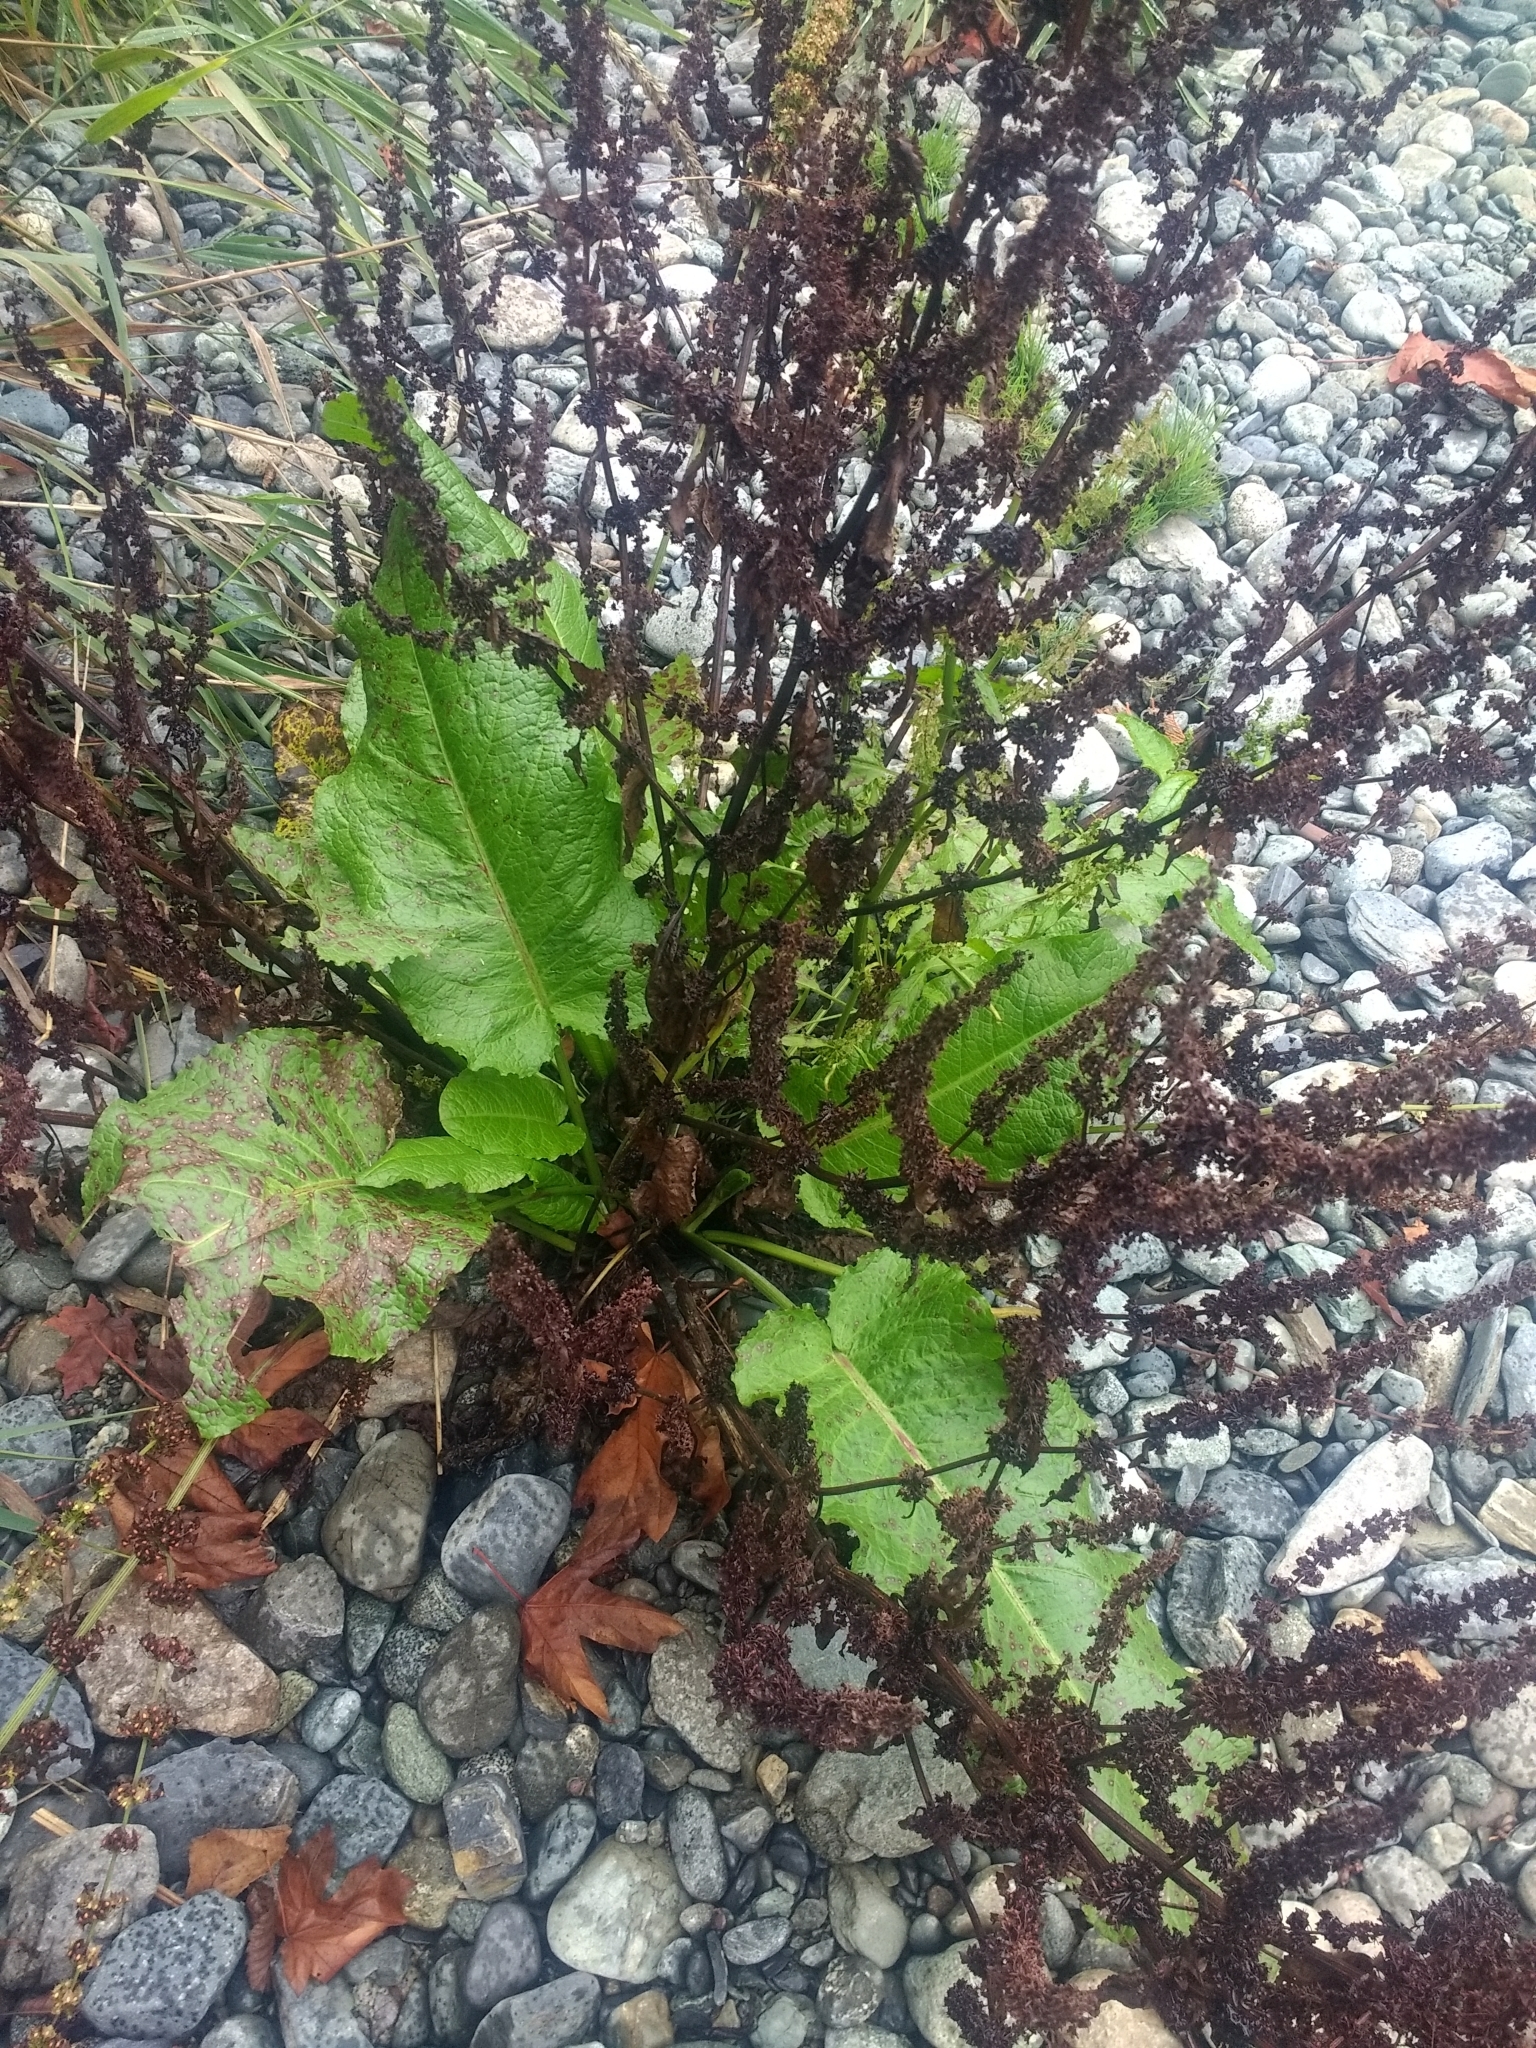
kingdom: Plantae
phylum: Tracheophyta
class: Magnoliopsida
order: Caryophyllales
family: Polygonaceae
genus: Rumex
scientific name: Rumex obtusifolius
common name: Bitter dock
